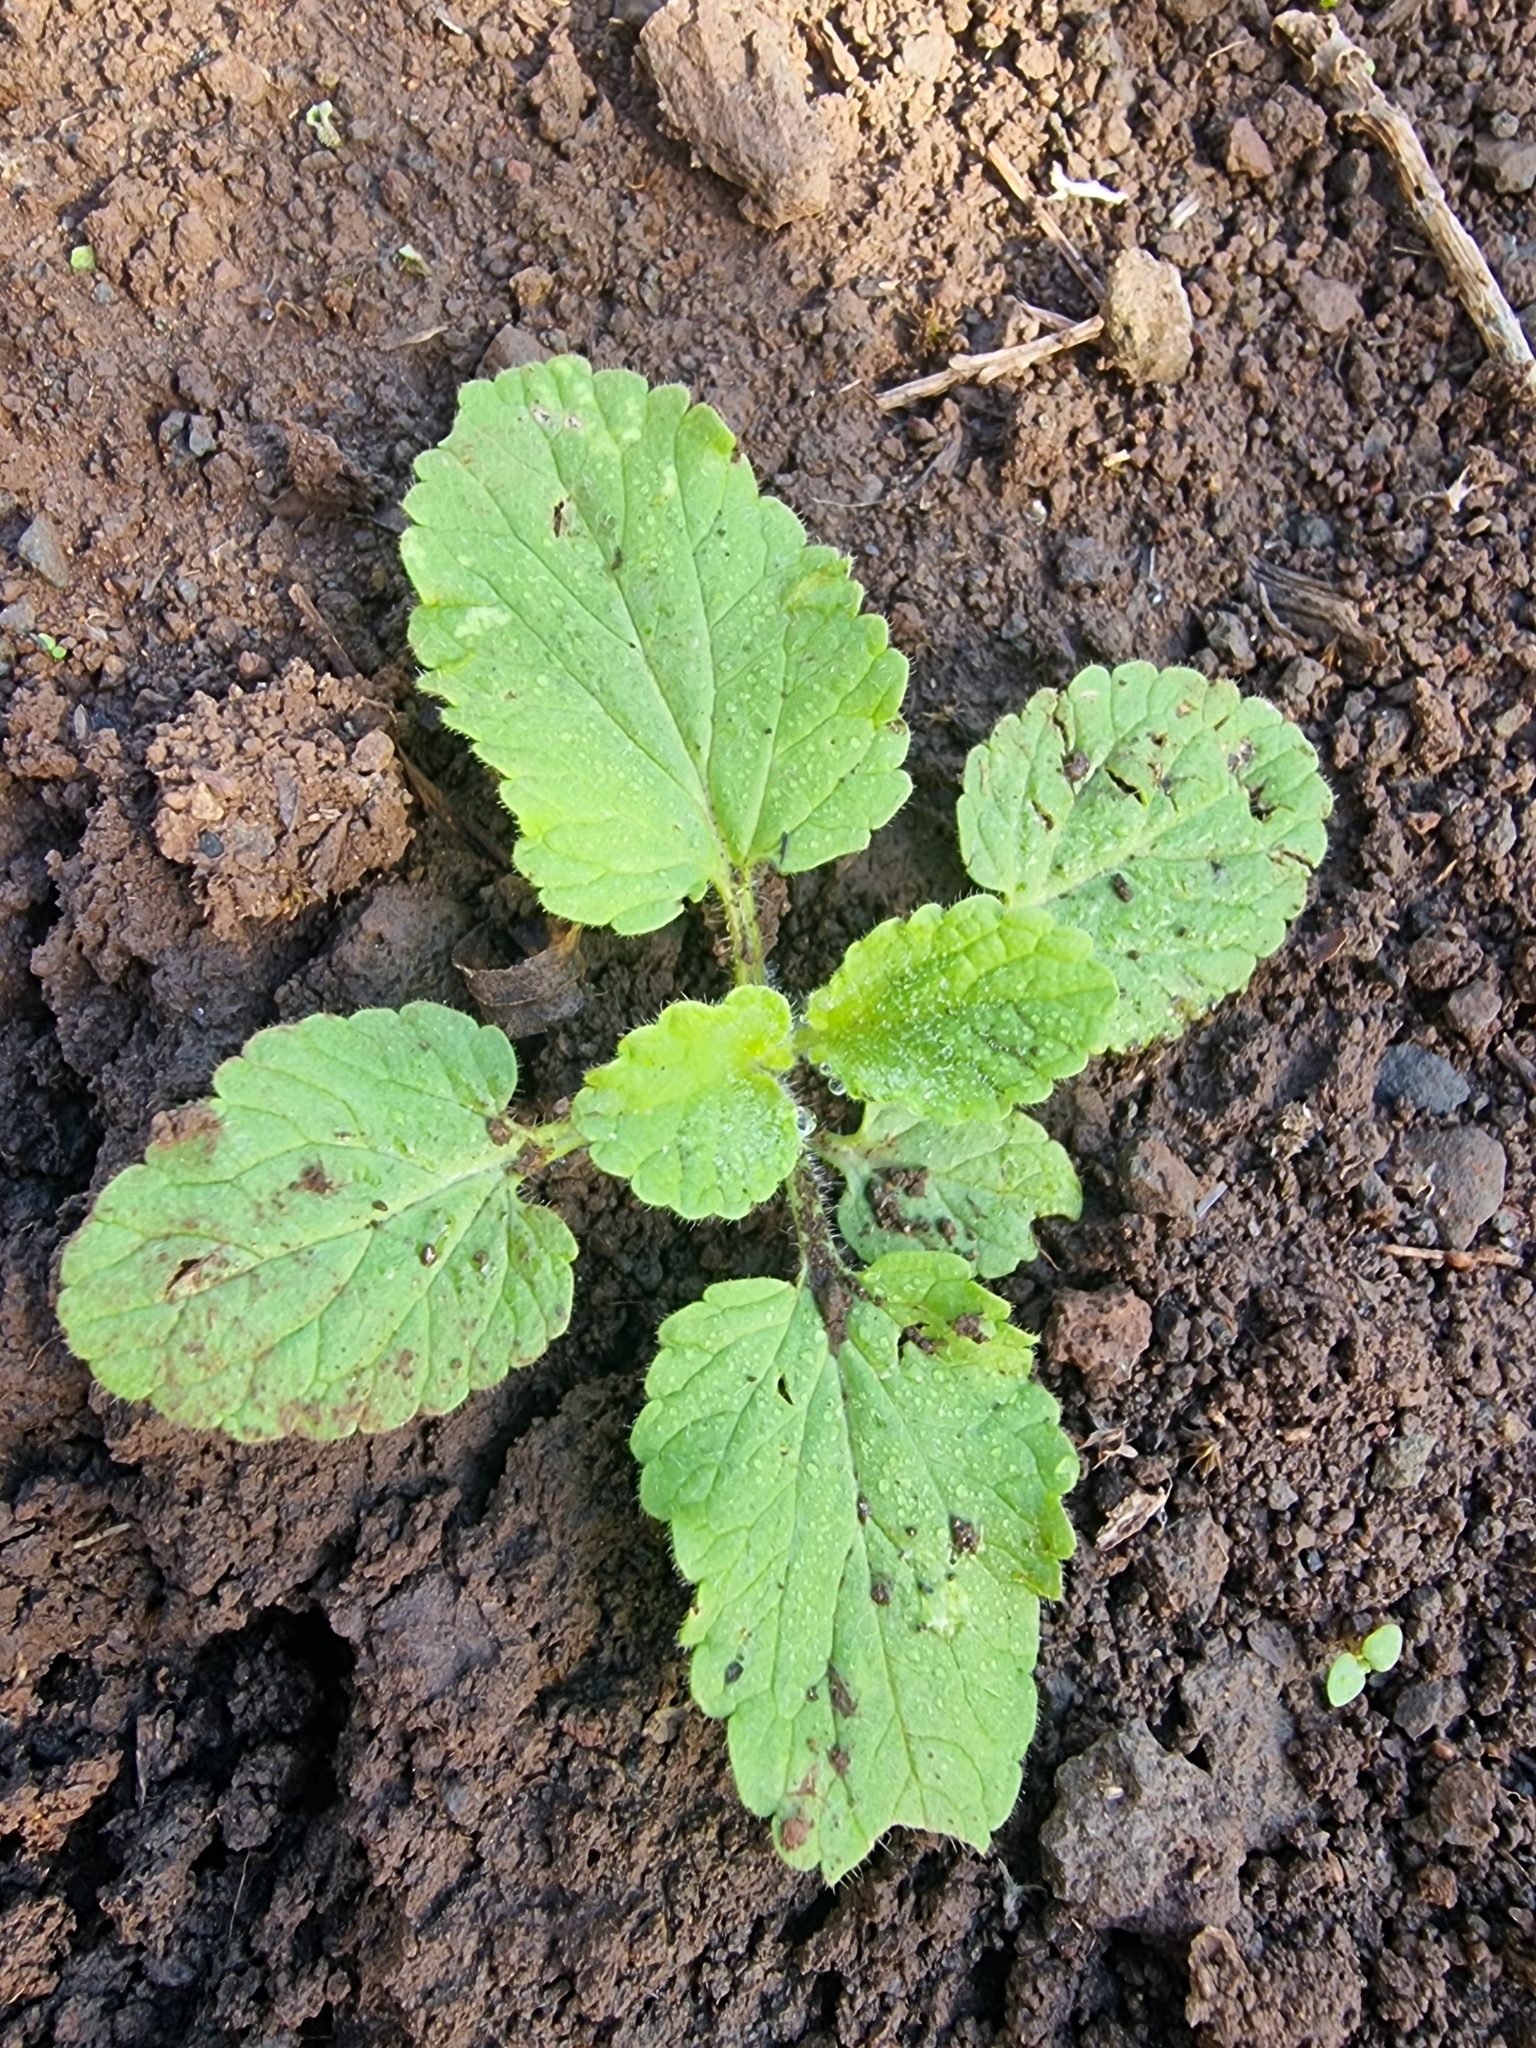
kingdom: Plantae
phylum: Tracheophyta
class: Magnoliopsida
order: Lamiales
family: Lamiaceae
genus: Stachys
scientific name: Stachys ocymastrum
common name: Italian hedgenettle
